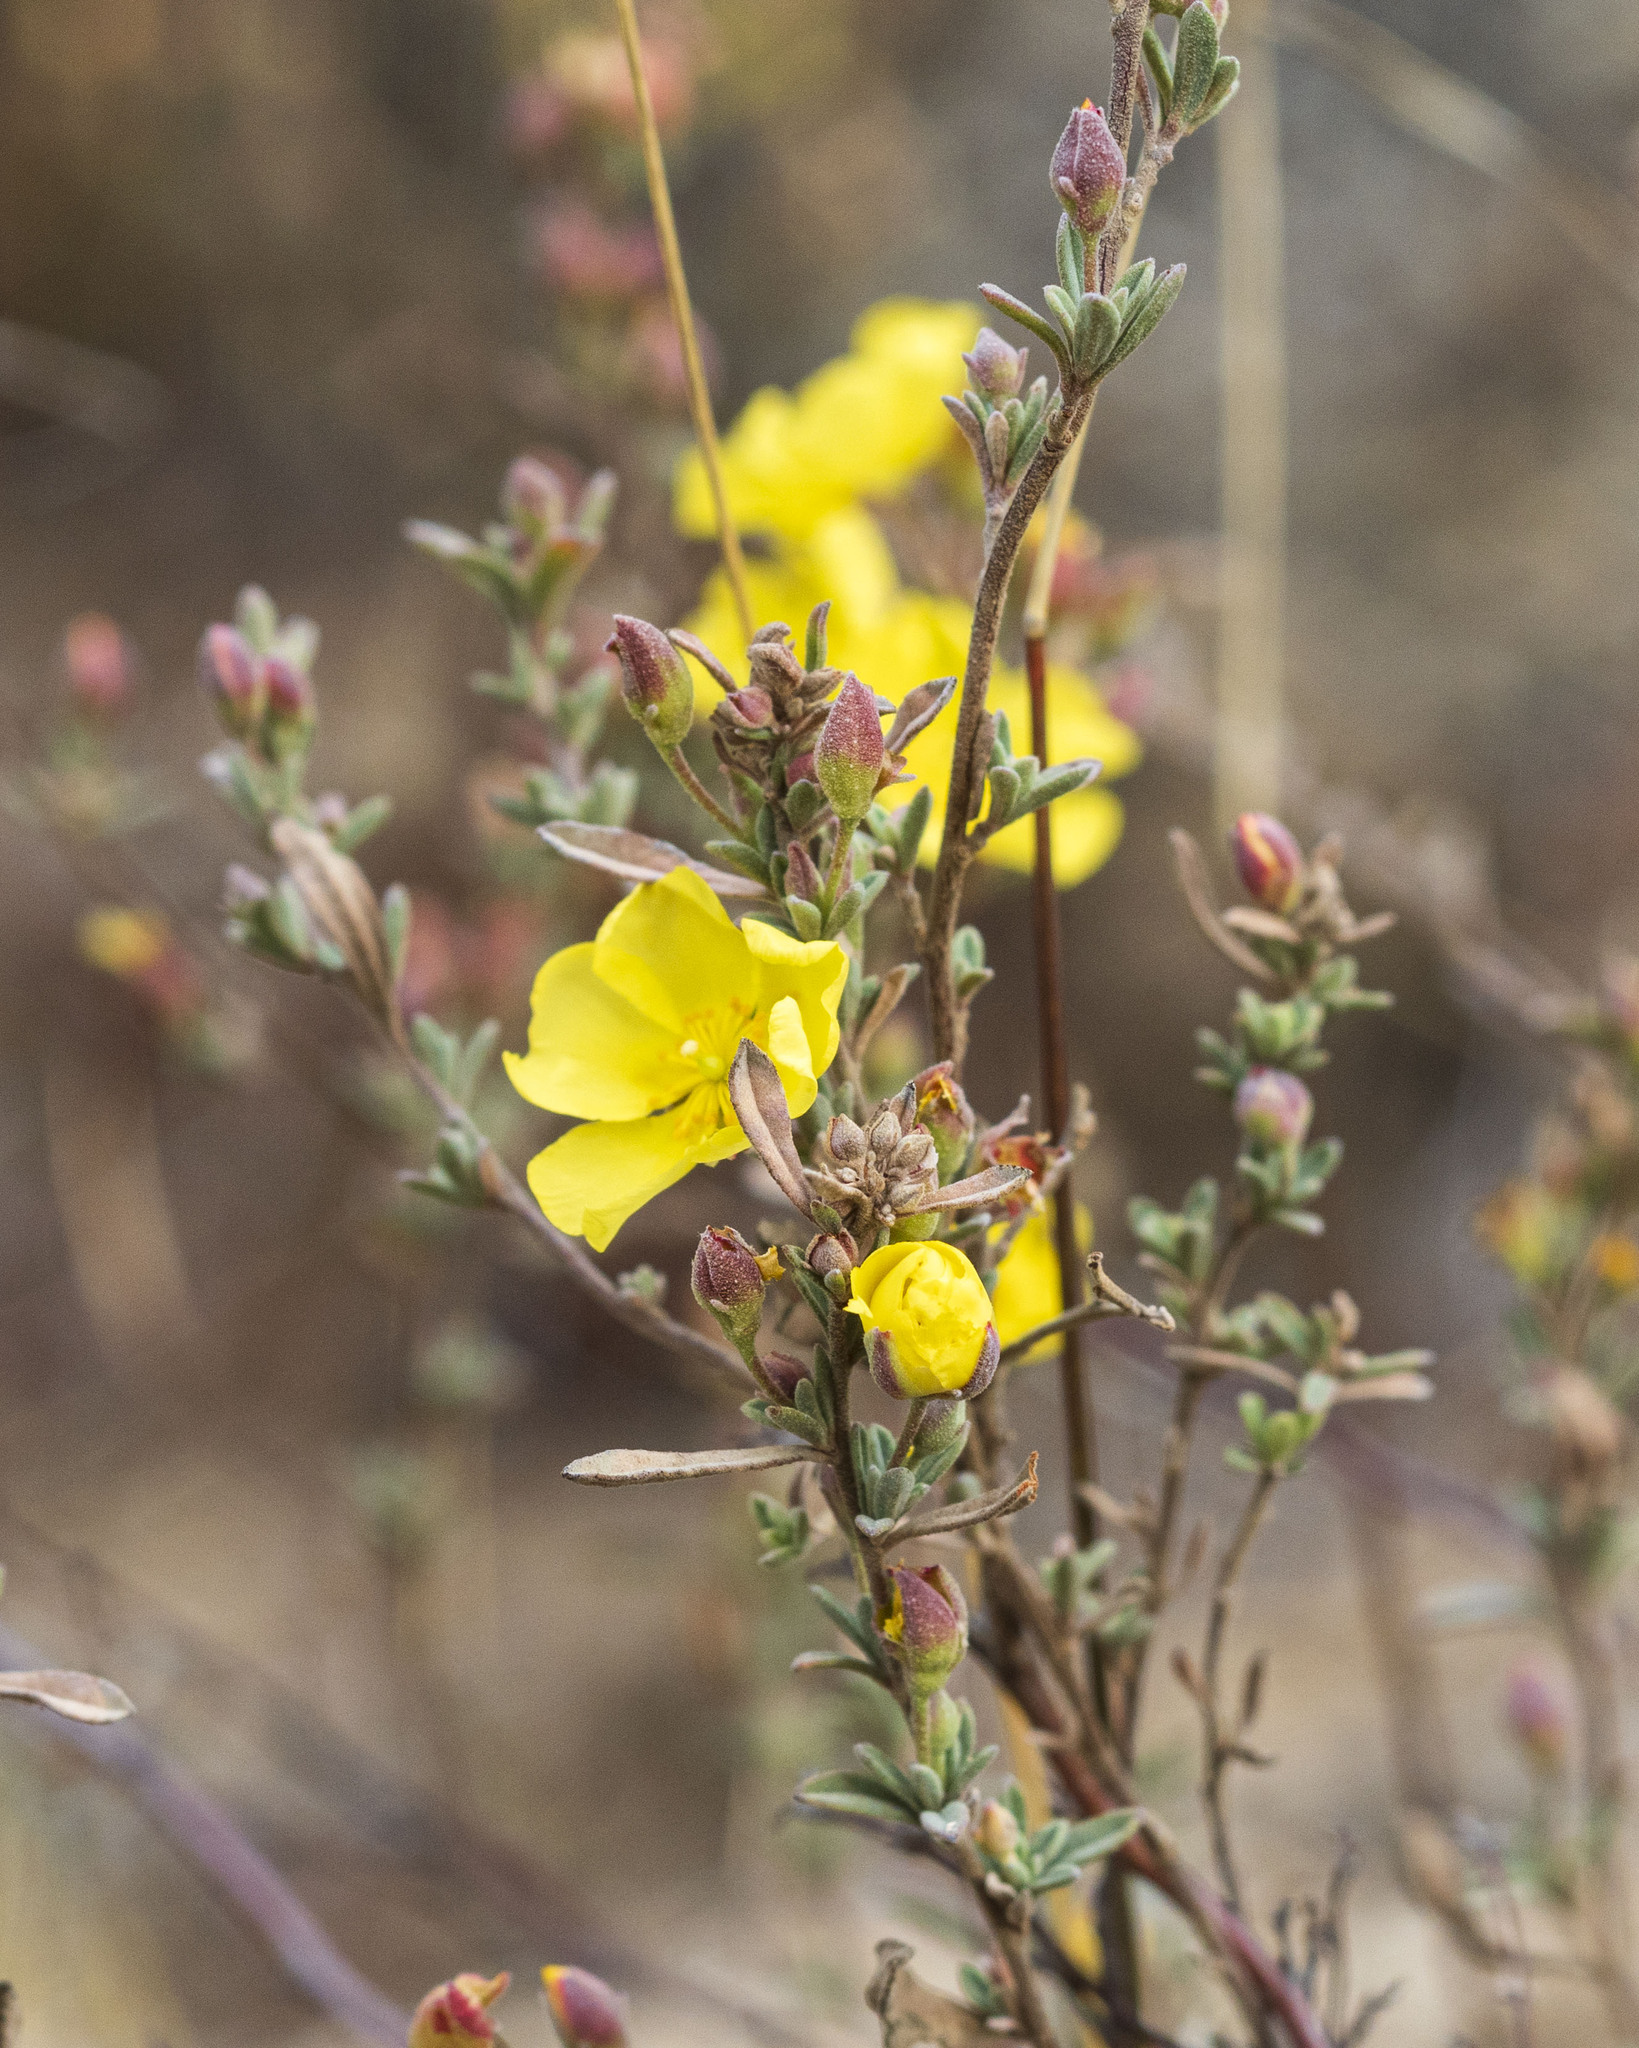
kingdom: Plantae
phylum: Tracheophyta
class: Magnoliopsida
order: Malvales
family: Cistaceae
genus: Crocanthemum
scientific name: Crocanthemum glomeratum
